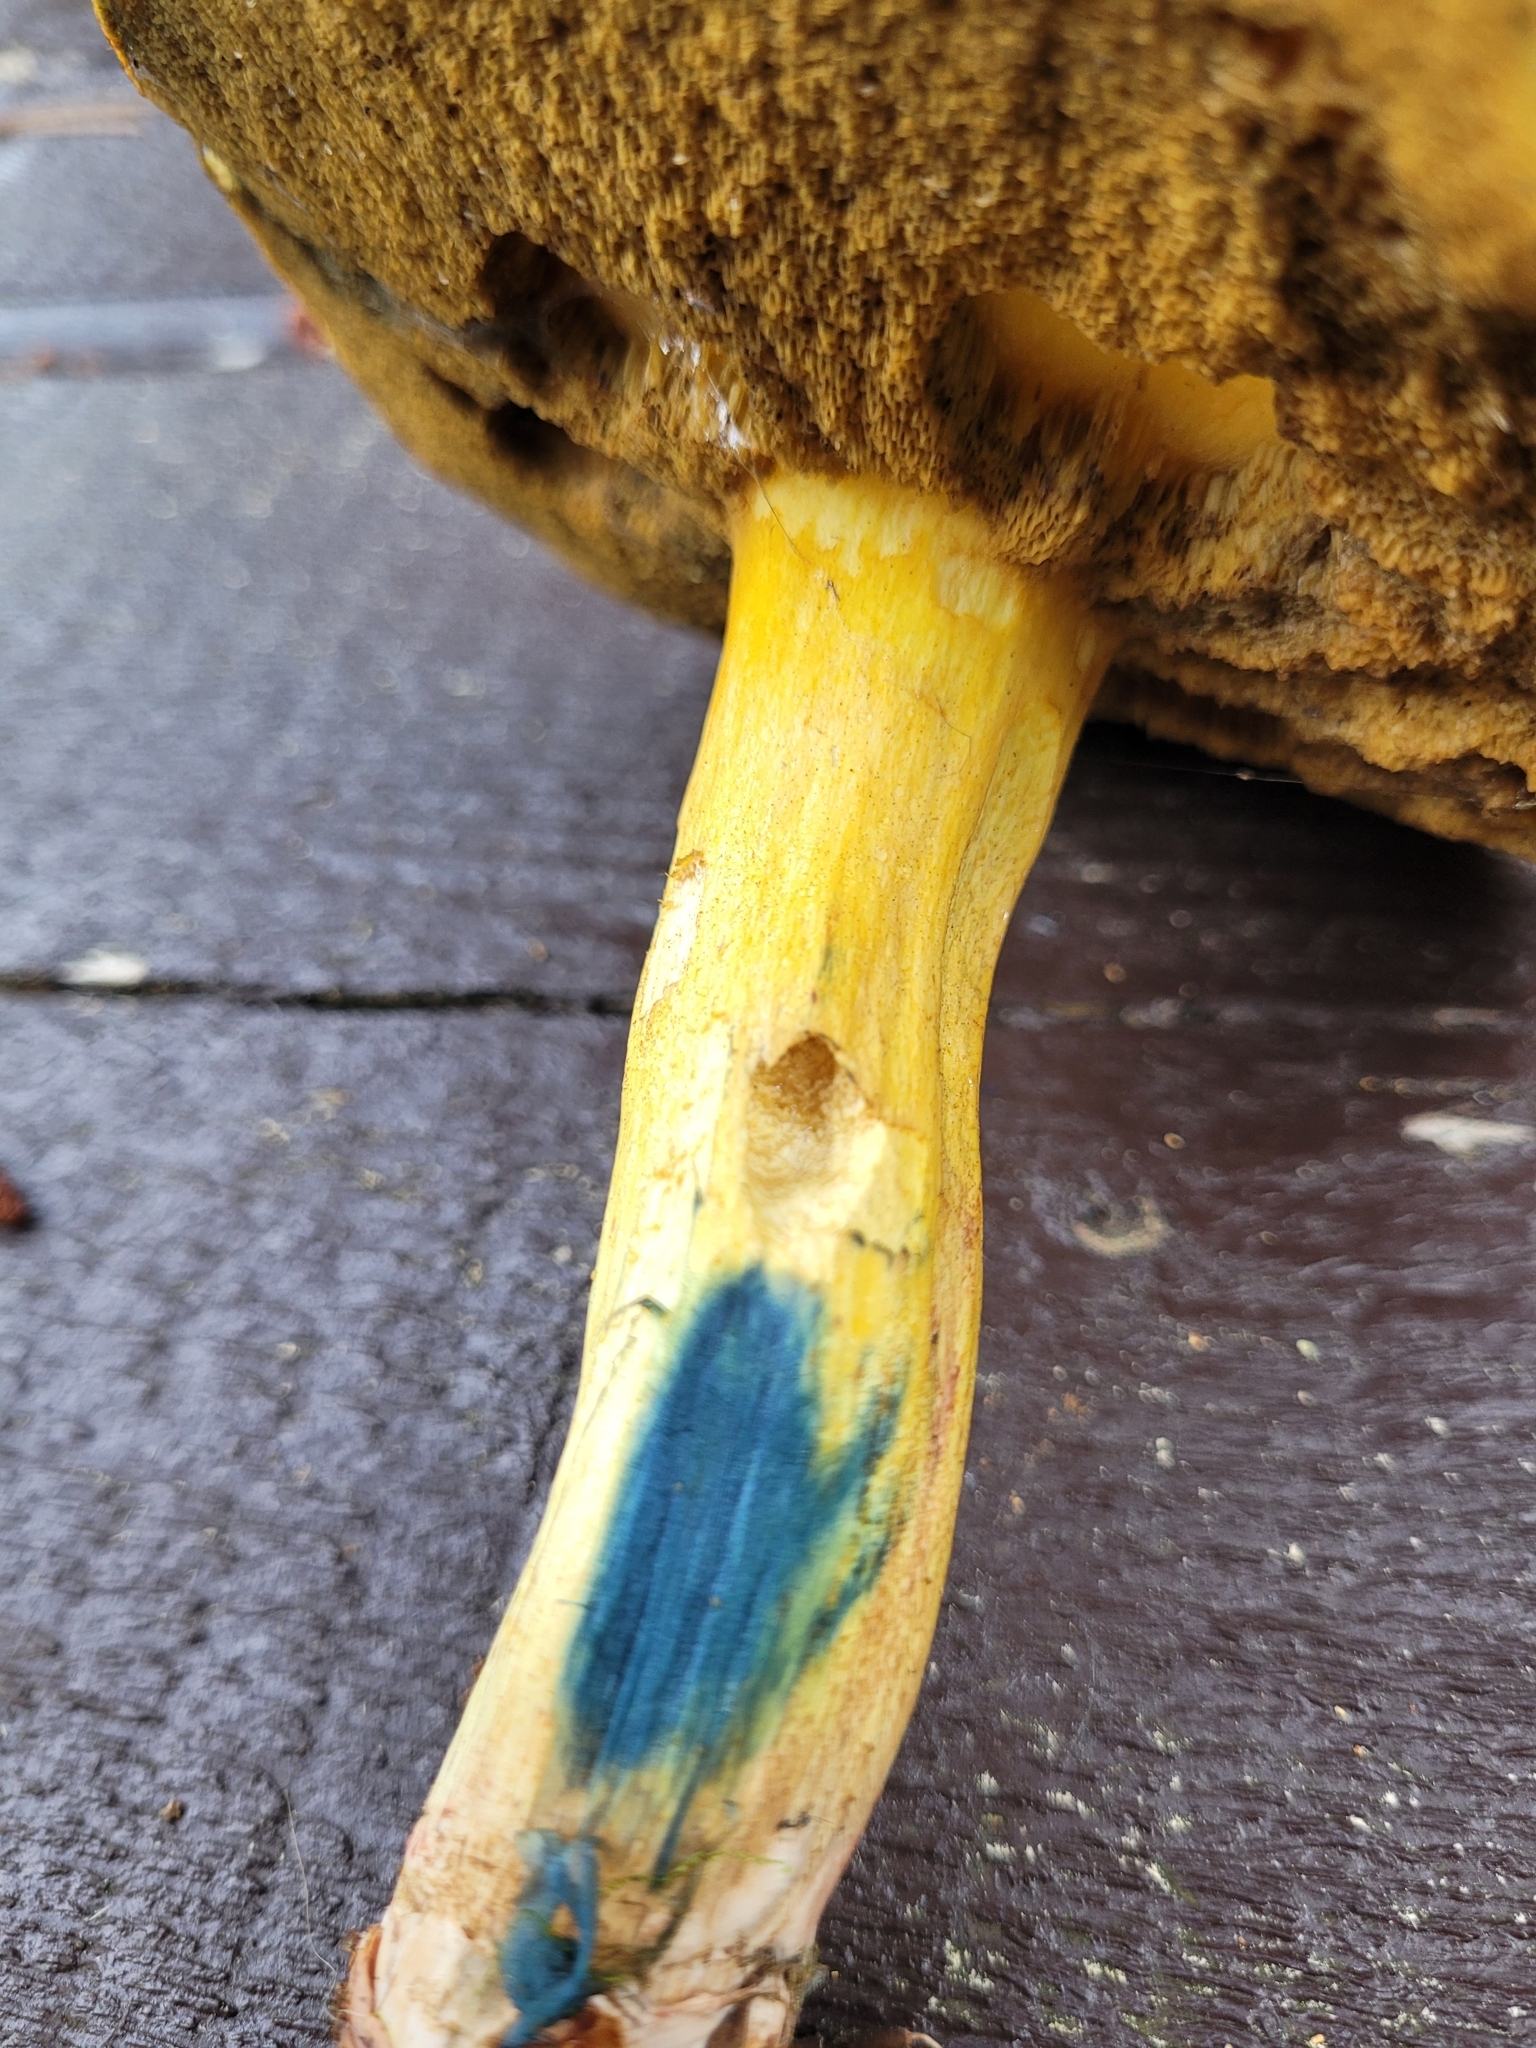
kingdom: Fungi
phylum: Basidiomycota
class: Agaricomycetes
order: Boletales
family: Boletaceae
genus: Chalciporus
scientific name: Chalciporus piperatus
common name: Peppery bolete
